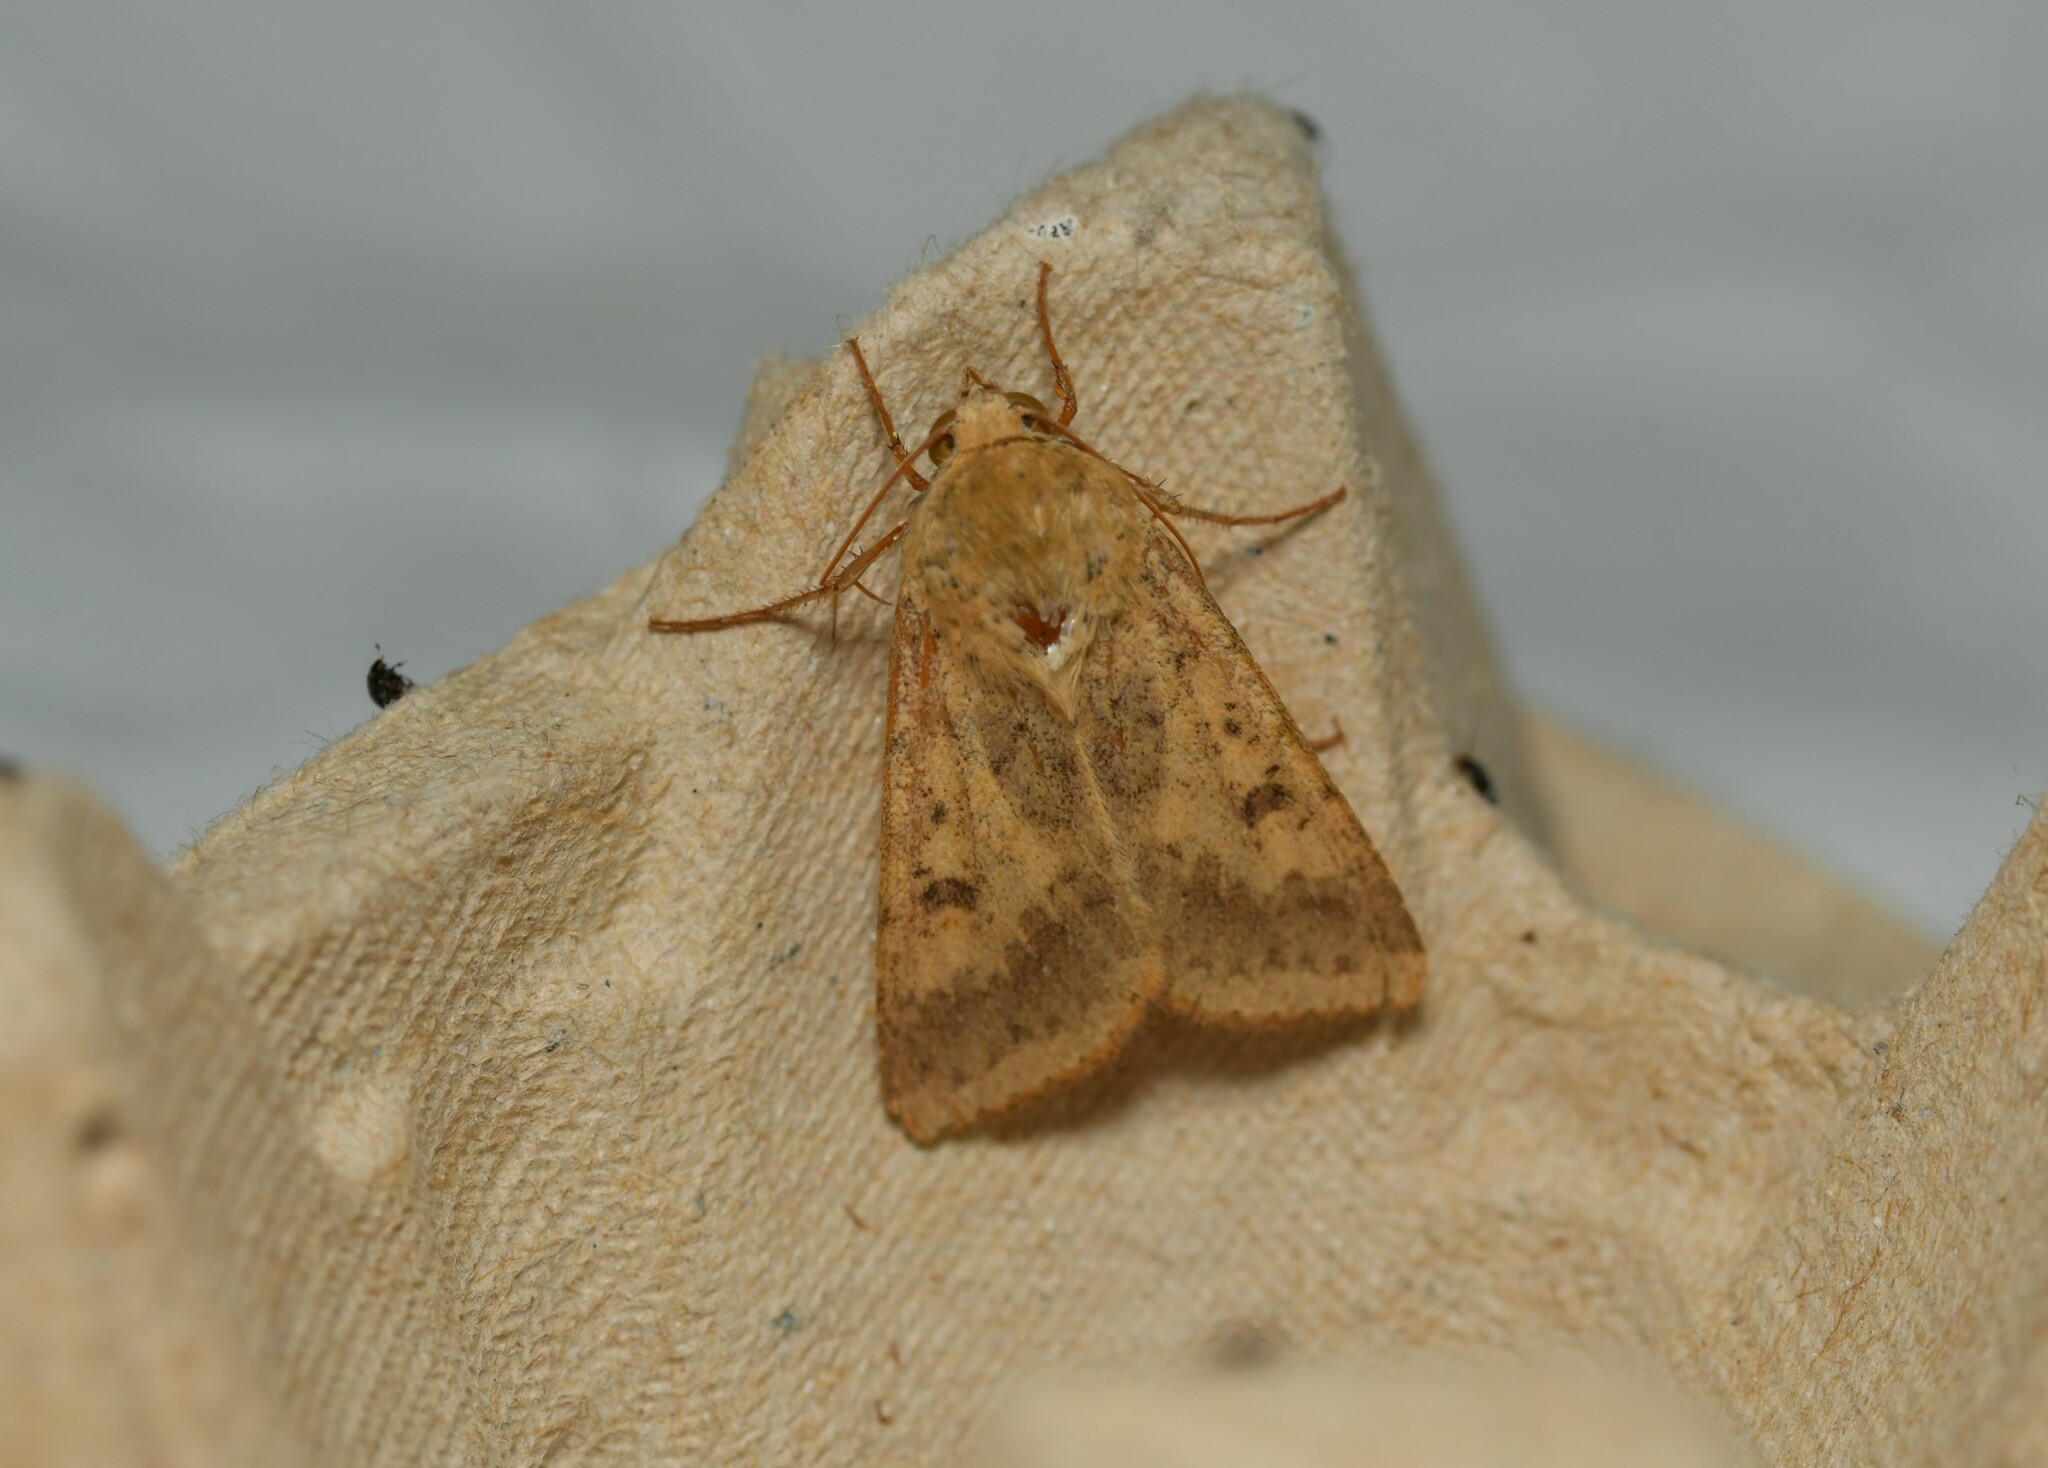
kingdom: Animalia
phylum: Arthropoda
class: Insecta
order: Lepidoptera
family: Noctuidae
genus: Helicoverpa
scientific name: Helicoverpa armigera
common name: Cotton bollworm
